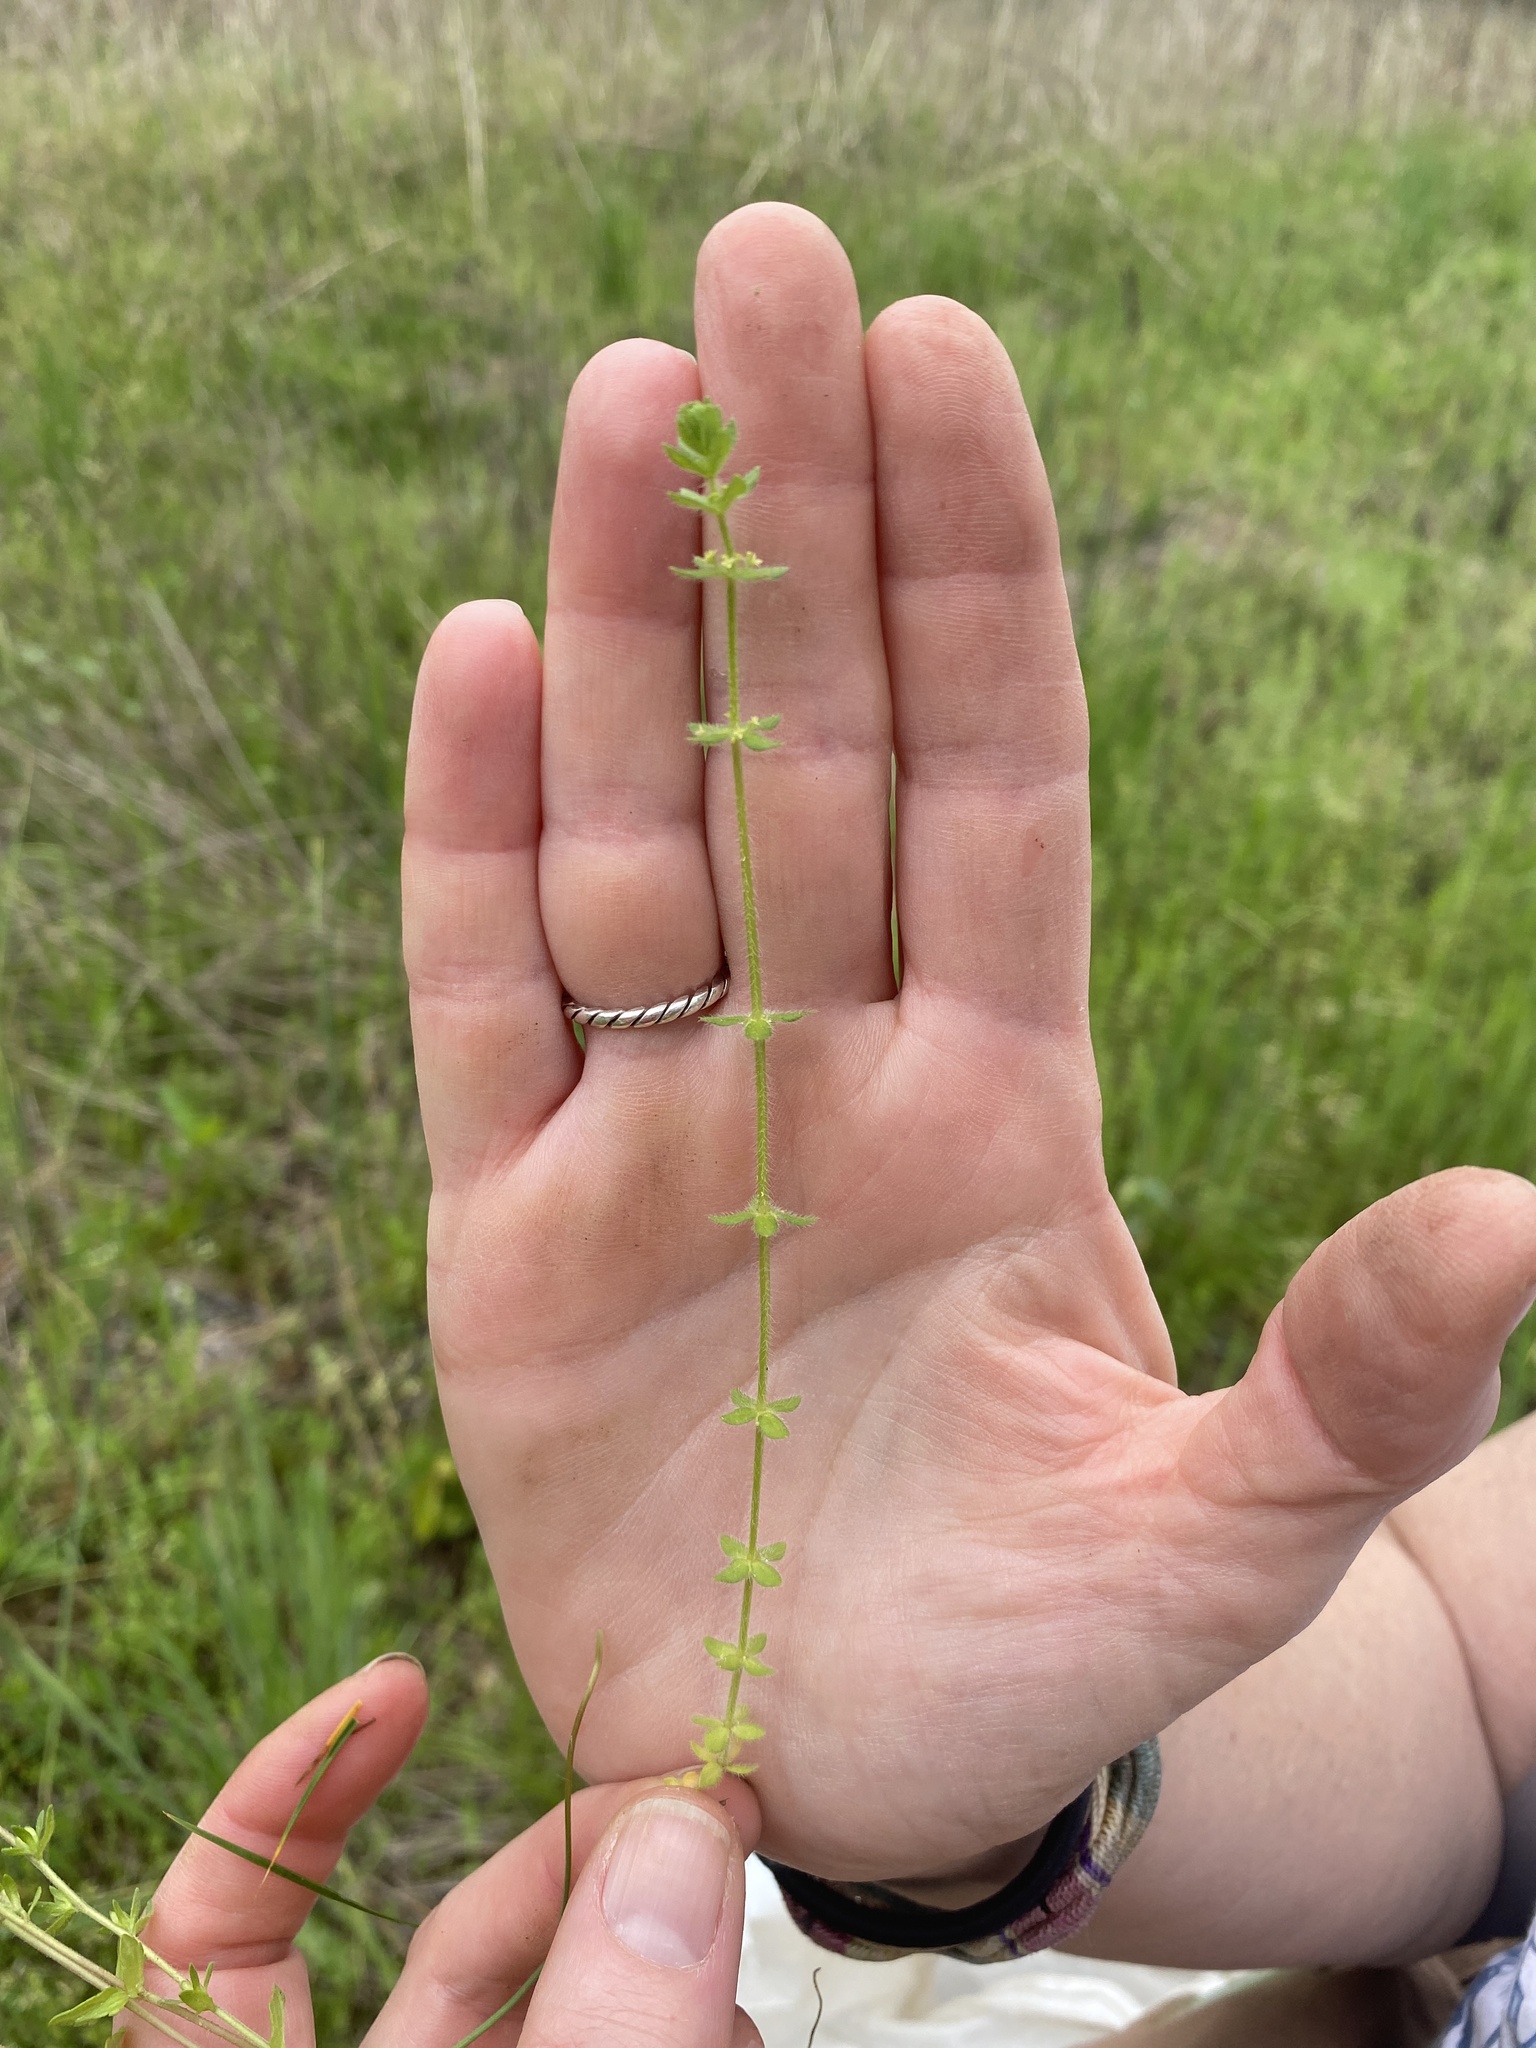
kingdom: Plantae
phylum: Tracheophyta
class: Magnoliopsida
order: Gentianales
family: Rubiaceae
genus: Cruciata
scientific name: Cruciata pedemontana
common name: Piedmont bedstraw
